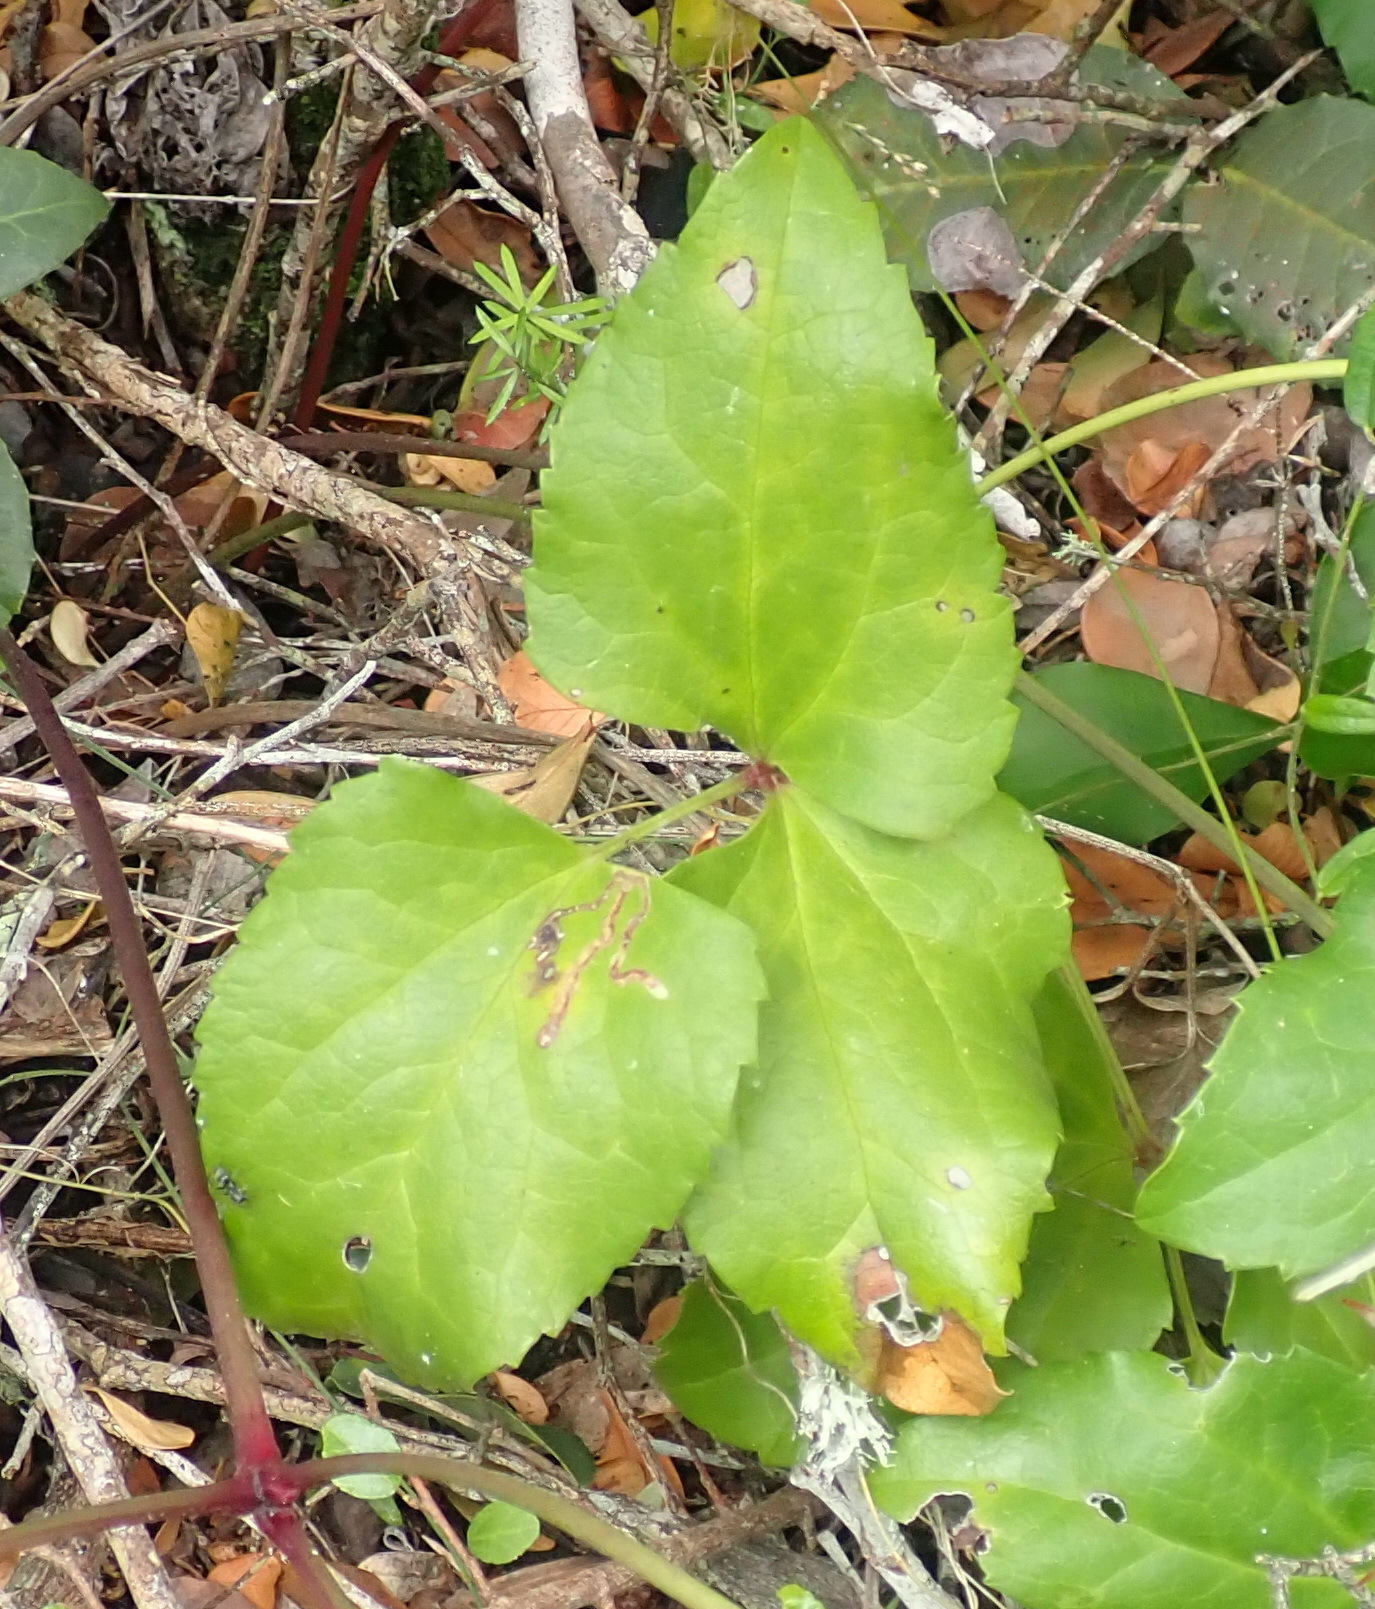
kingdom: Plantae
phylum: Tracheophyta
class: Magnoliopsida
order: Ranunculales
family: Ranunculaceae
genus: Knowltonia
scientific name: Knowltonia vesicatoria
